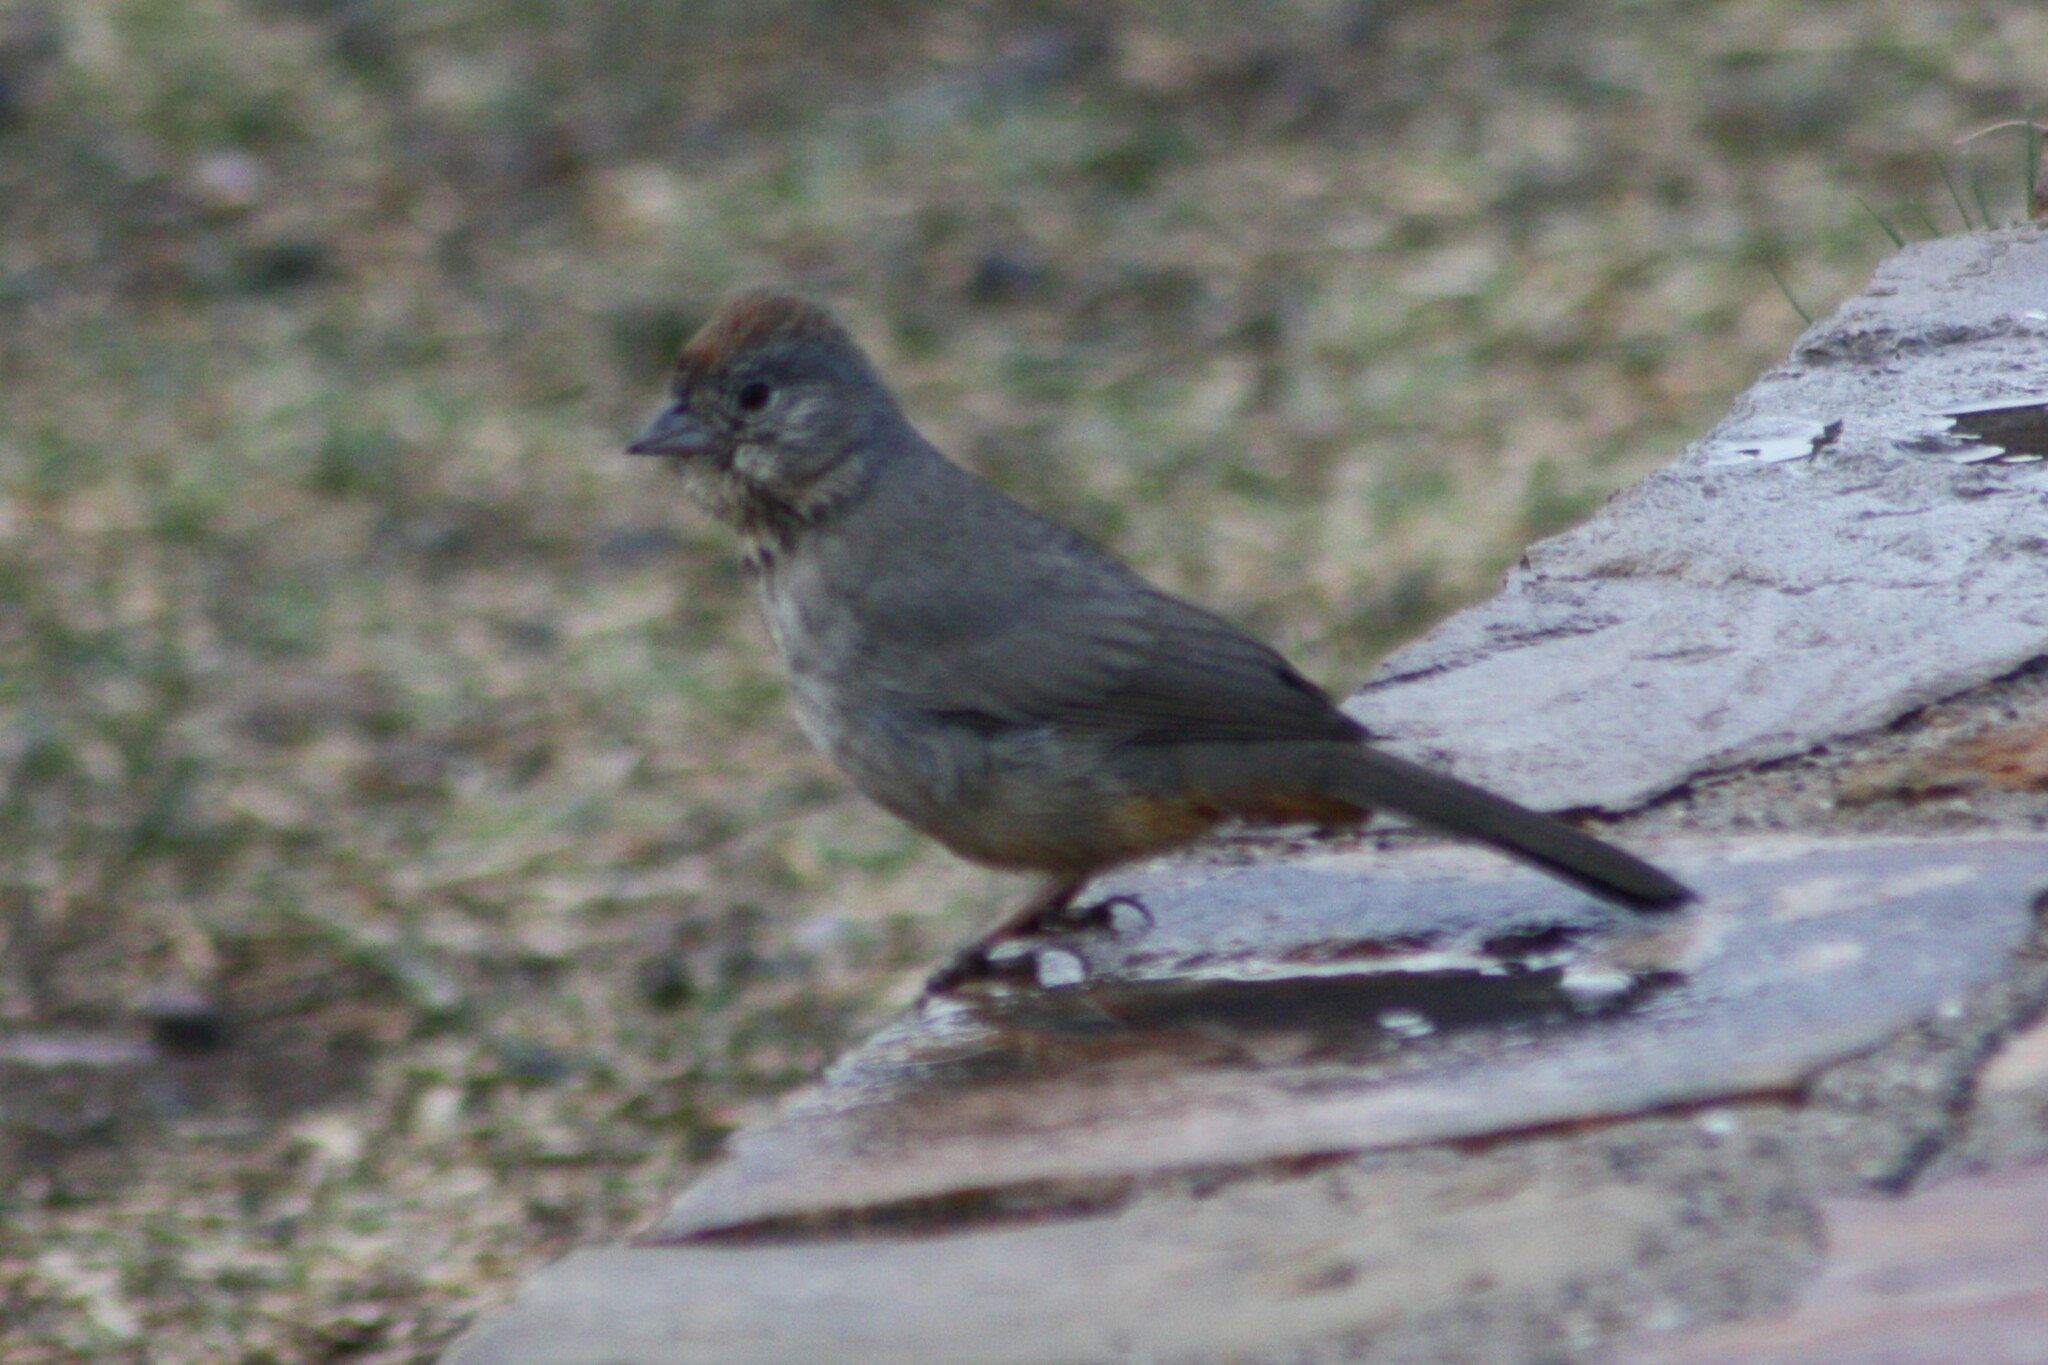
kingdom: Animalia
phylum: Chordata
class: Aves
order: Passeriformes
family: Passerellidae
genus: Melozone
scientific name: Melozone fusca
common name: Canyon towhee
